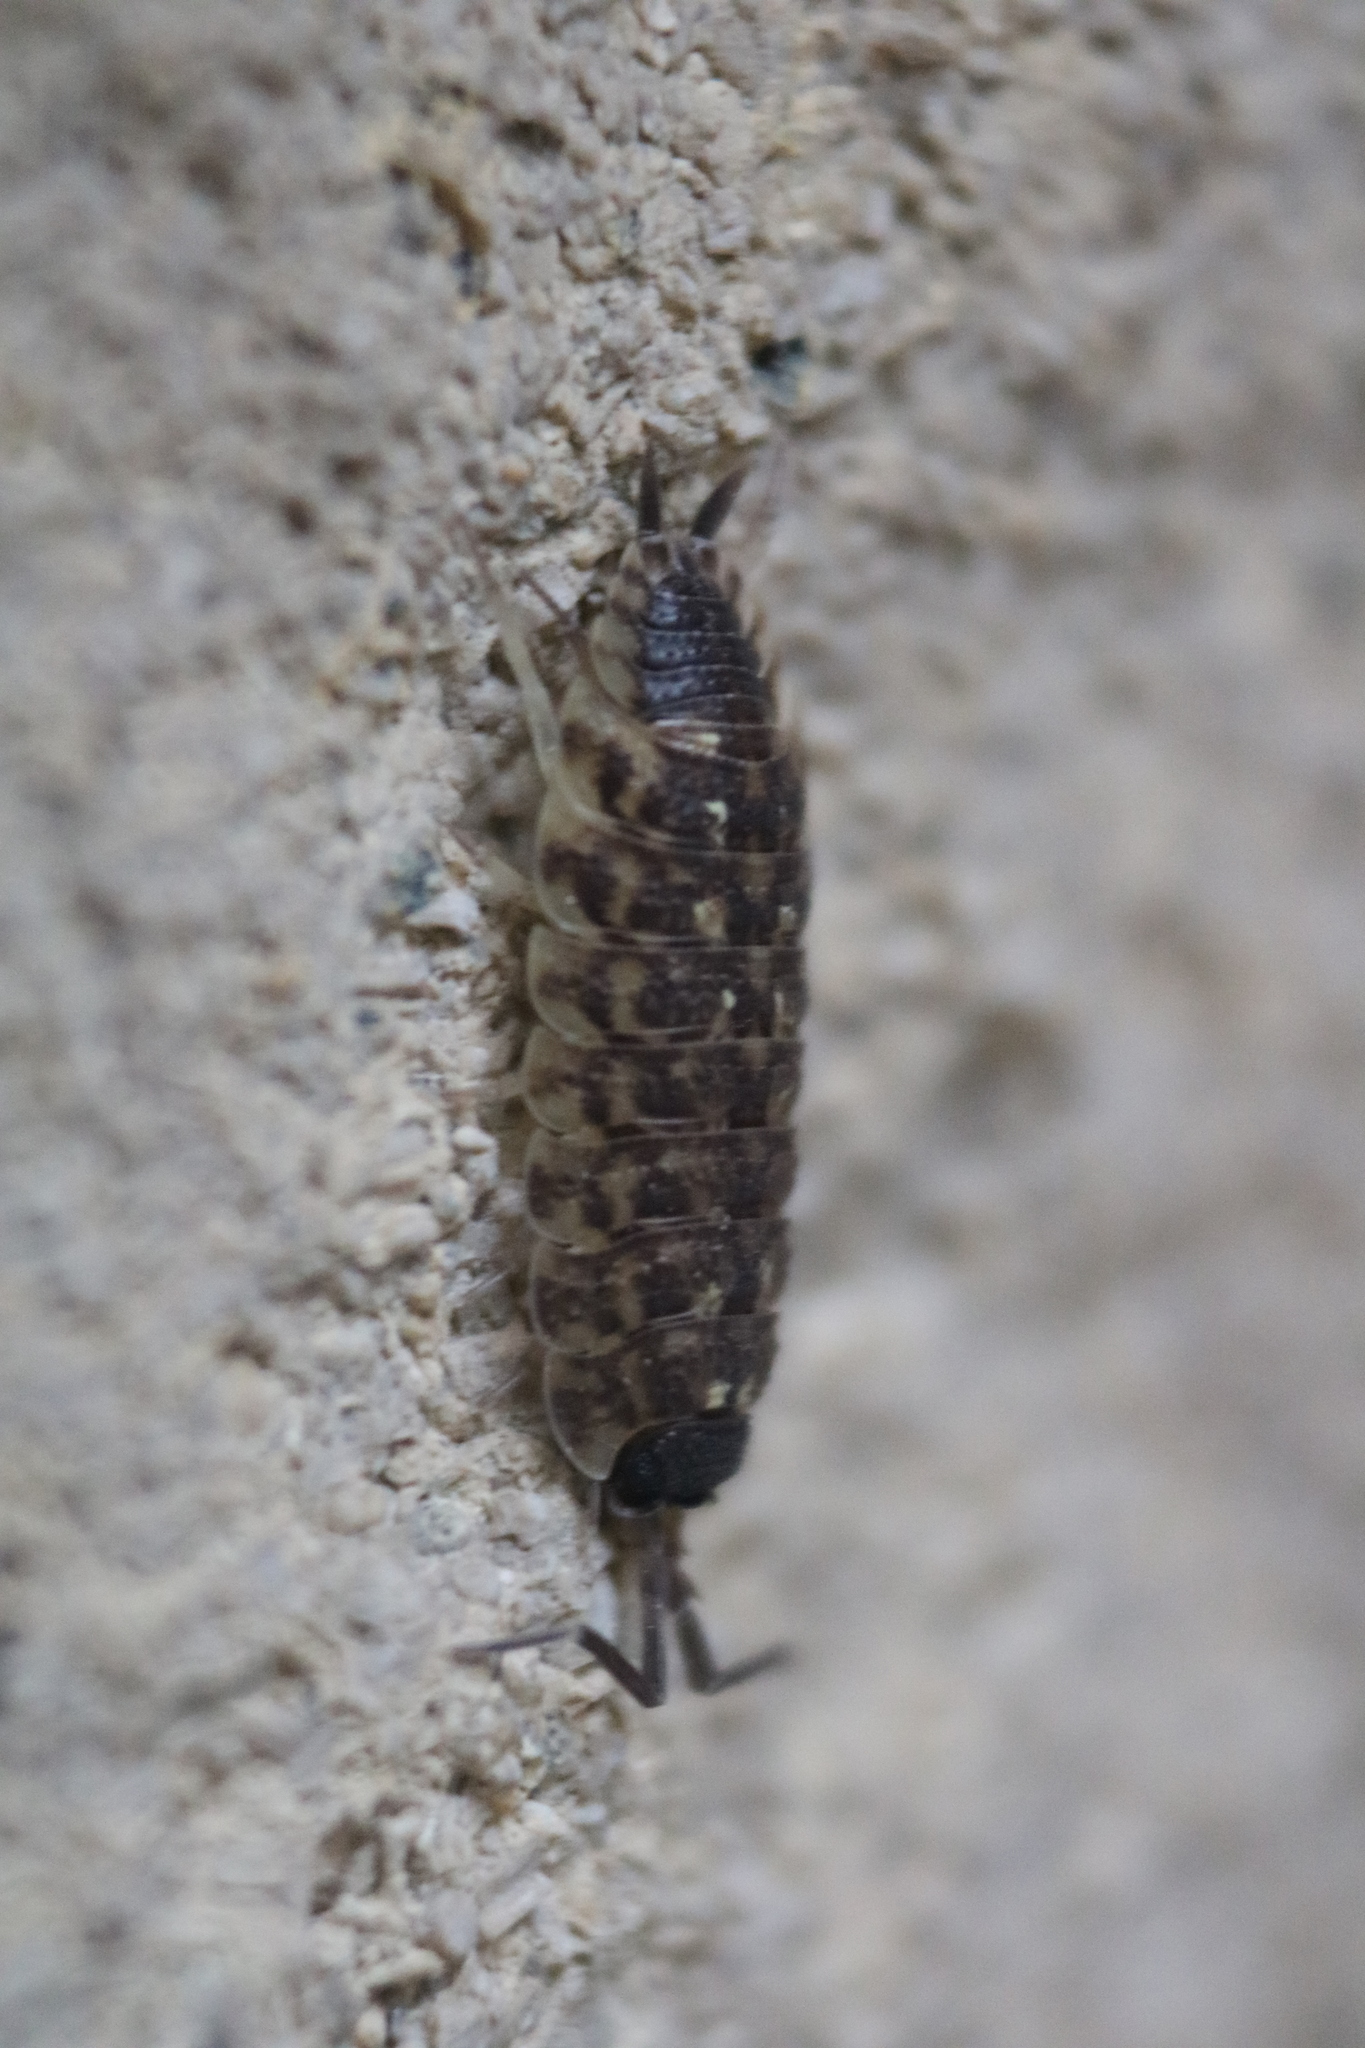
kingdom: Animalia
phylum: Arthropoda
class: Malacostraca
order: Isopoda
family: Porcellionidae
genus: Porcellio
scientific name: Porcellio spinicornis
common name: Painted woodlouse
